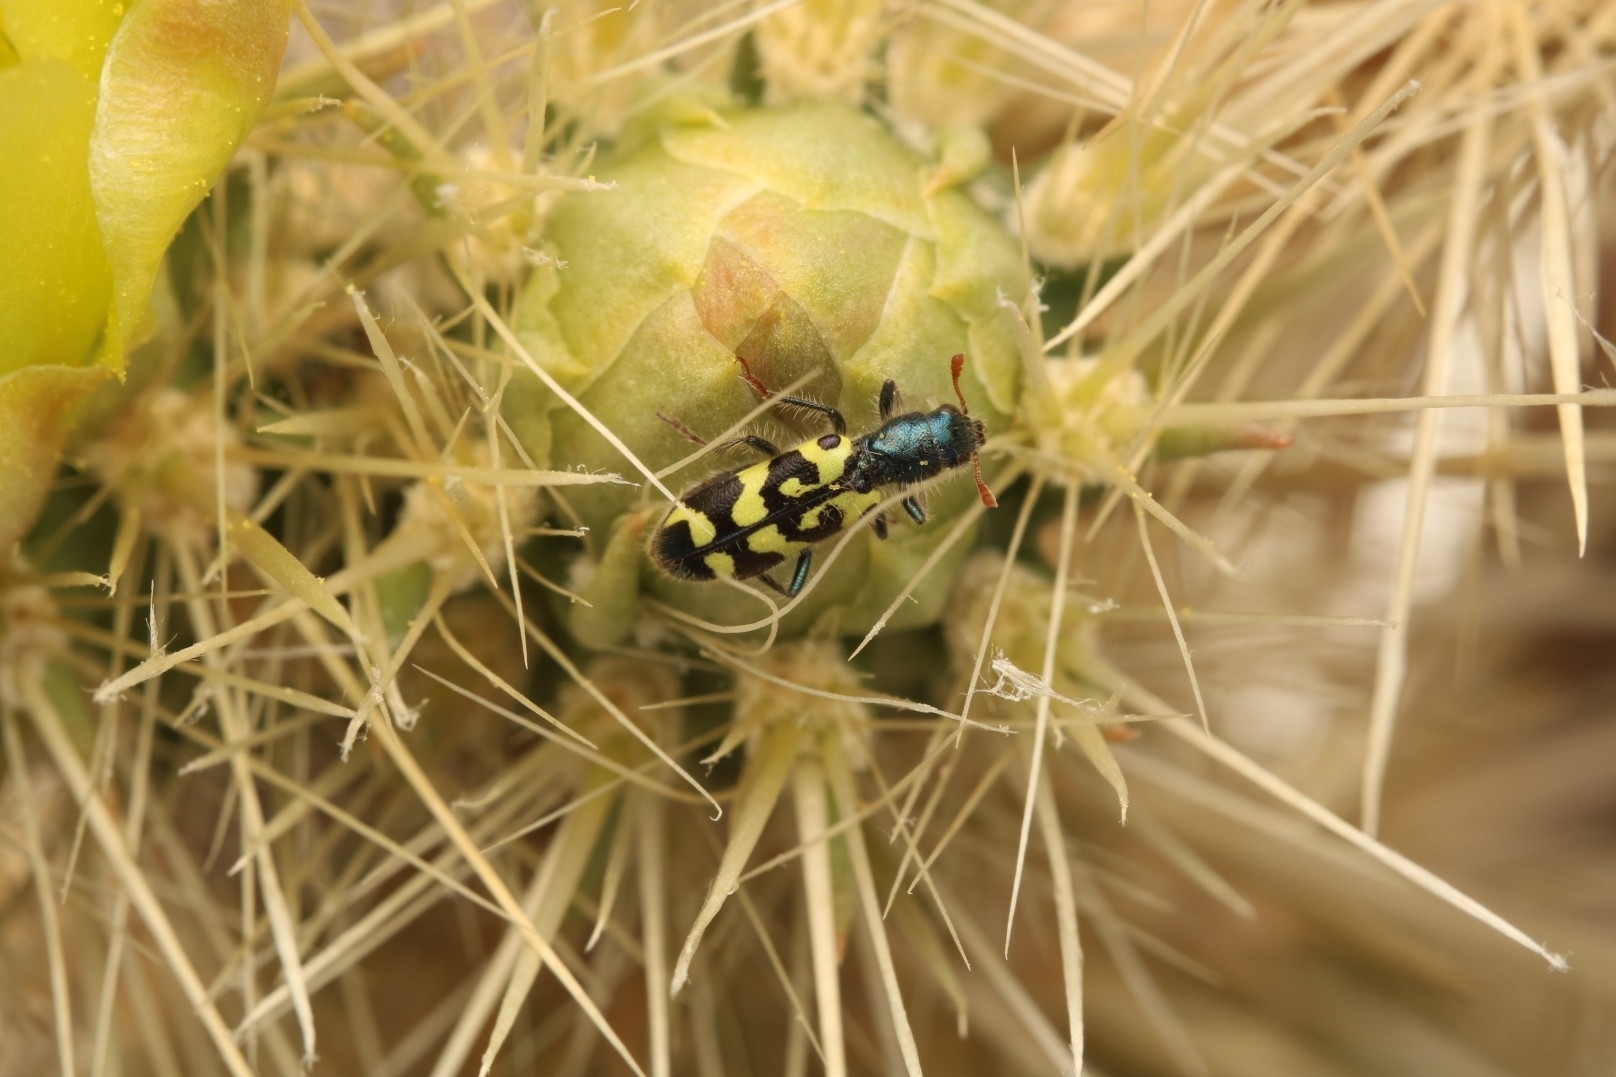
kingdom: Animalia
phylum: Arthropoda
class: Insecta
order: Coleoptera
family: Cleridae
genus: Trichodes
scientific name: Trichodes ornatus
